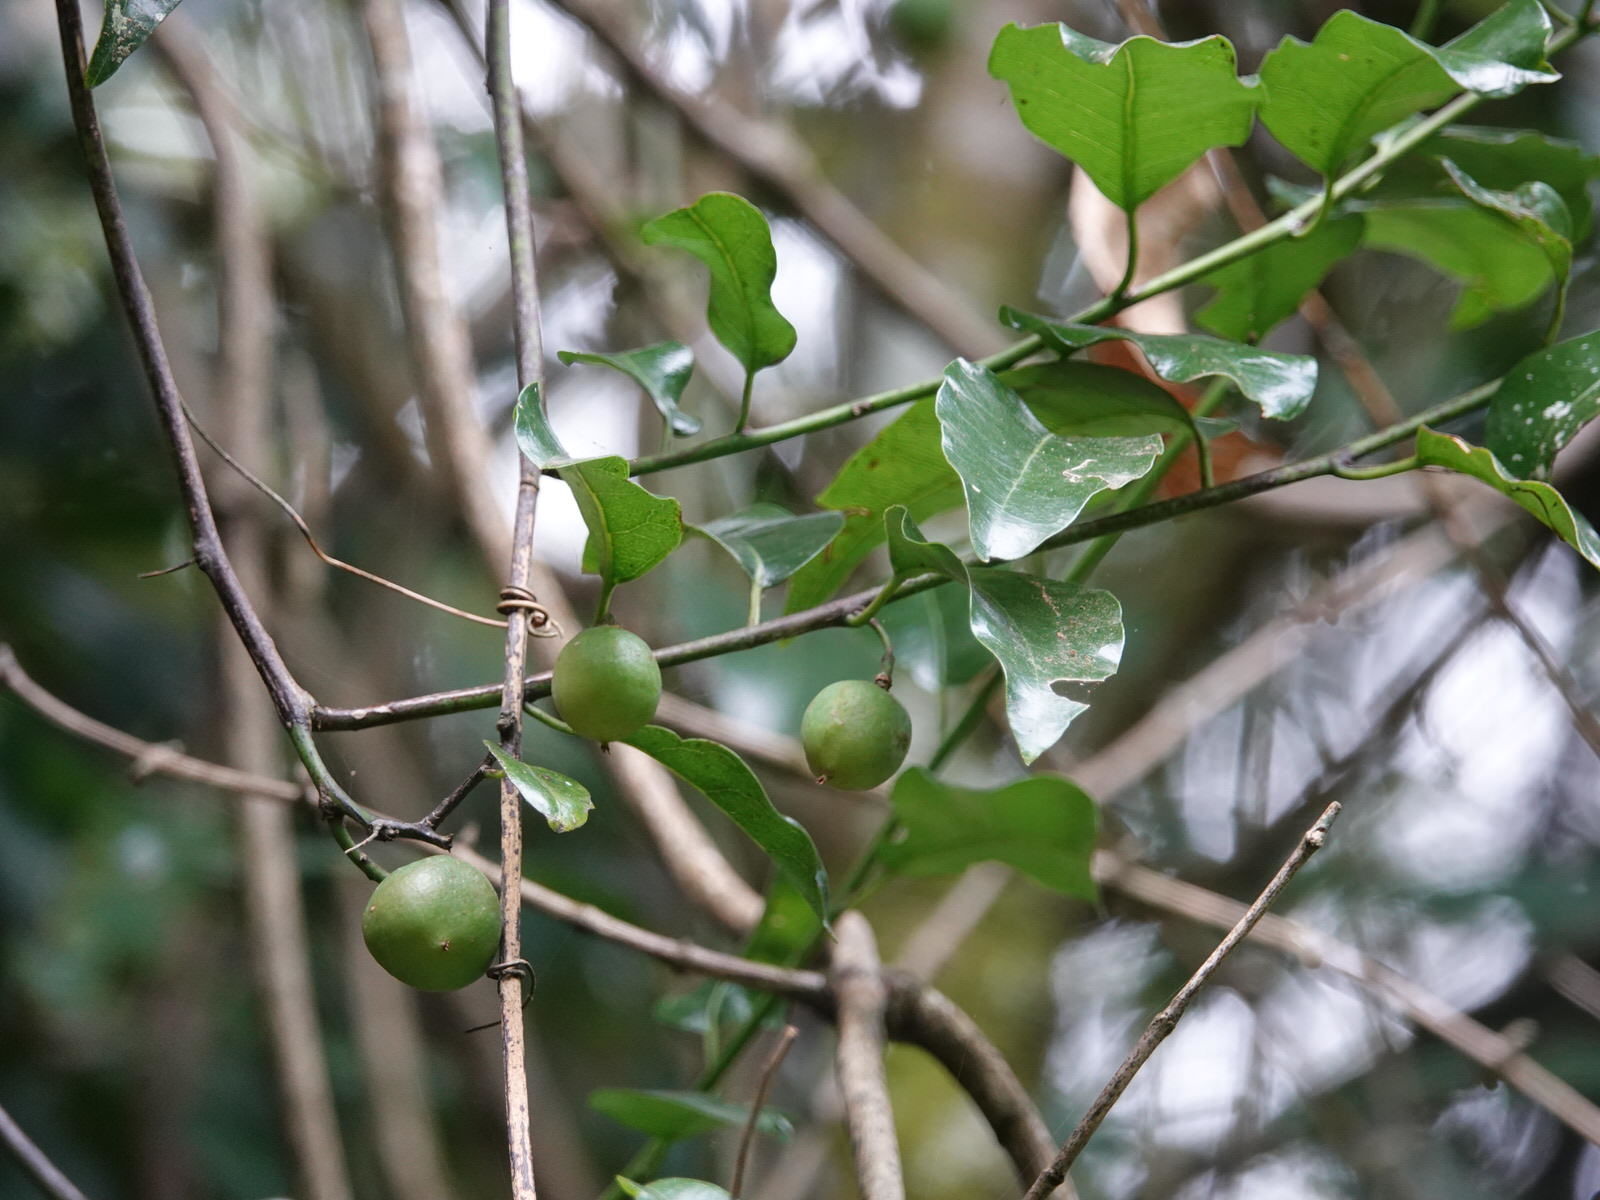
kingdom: Plantae
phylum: Tracheophyta
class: Magnoliopsida
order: Malpighiales
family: Passifloraceae
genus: Passiflora
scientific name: Passiflora tetrandra
